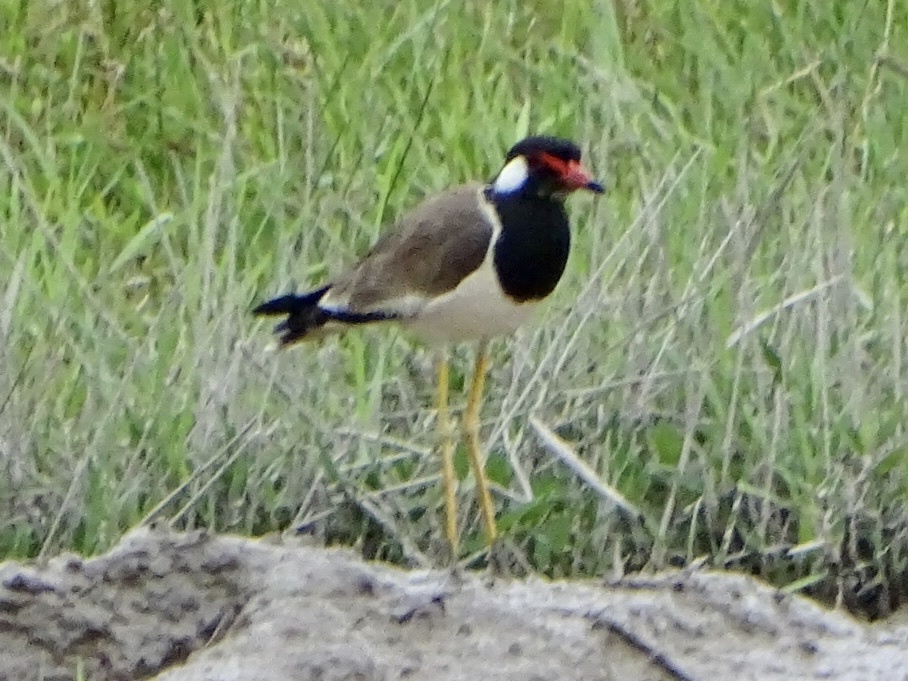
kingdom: Animalia
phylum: Chordata
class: Aves
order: Charadriiformes
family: Charadriidae
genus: Vanellus
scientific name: Vanellus indicus
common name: Red-wattled lapwing
